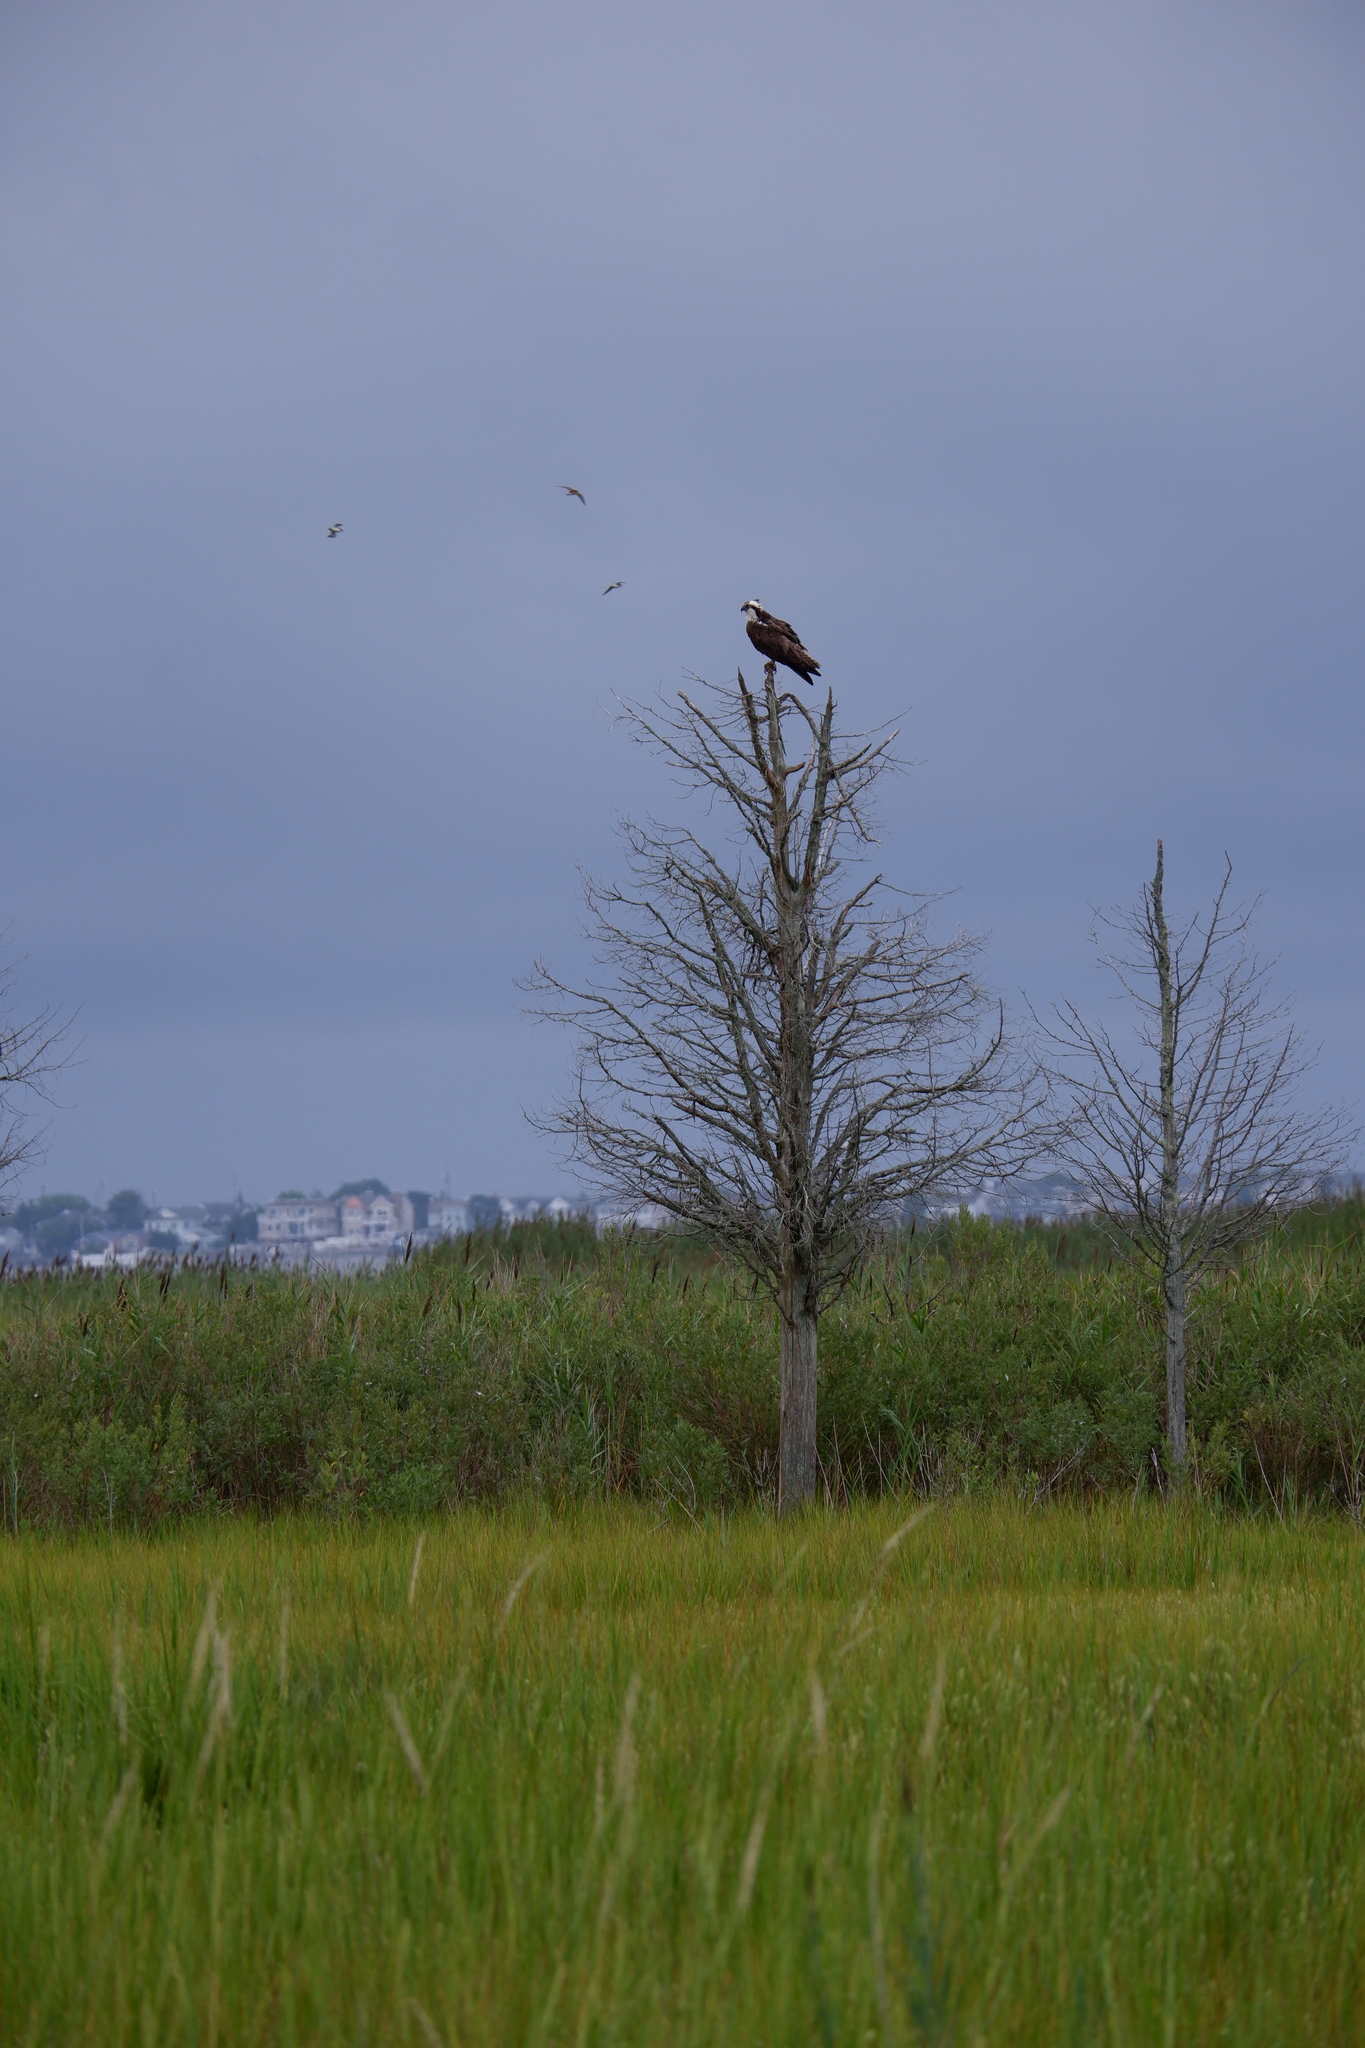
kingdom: Animalia
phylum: Chordata
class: Aves
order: Accipitriformes
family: Pandionidae
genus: Pandion
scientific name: Pandion haliaetus
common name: Osprey
